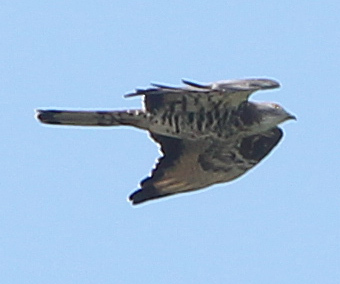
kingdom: Animalia
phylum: Chordata
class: Aves
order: Accipitriformes
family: Accipitridae
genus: Pernis
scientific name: Pernis apivorus
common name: European honey buzzard
